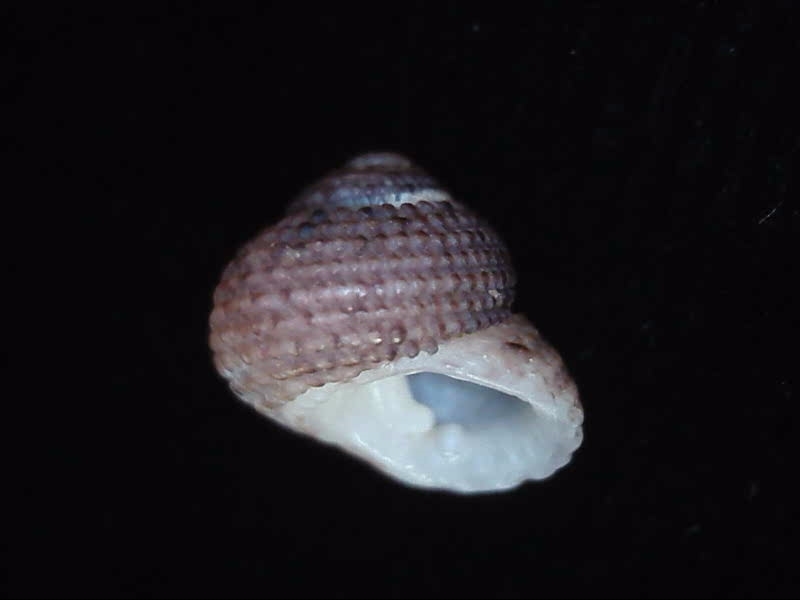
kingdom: Animalia
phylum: Mollusca
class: Gastropoda
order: Seguenziida
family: Chilodontaidae
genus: Herpetopoma
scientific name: Herpetopoma bellum
